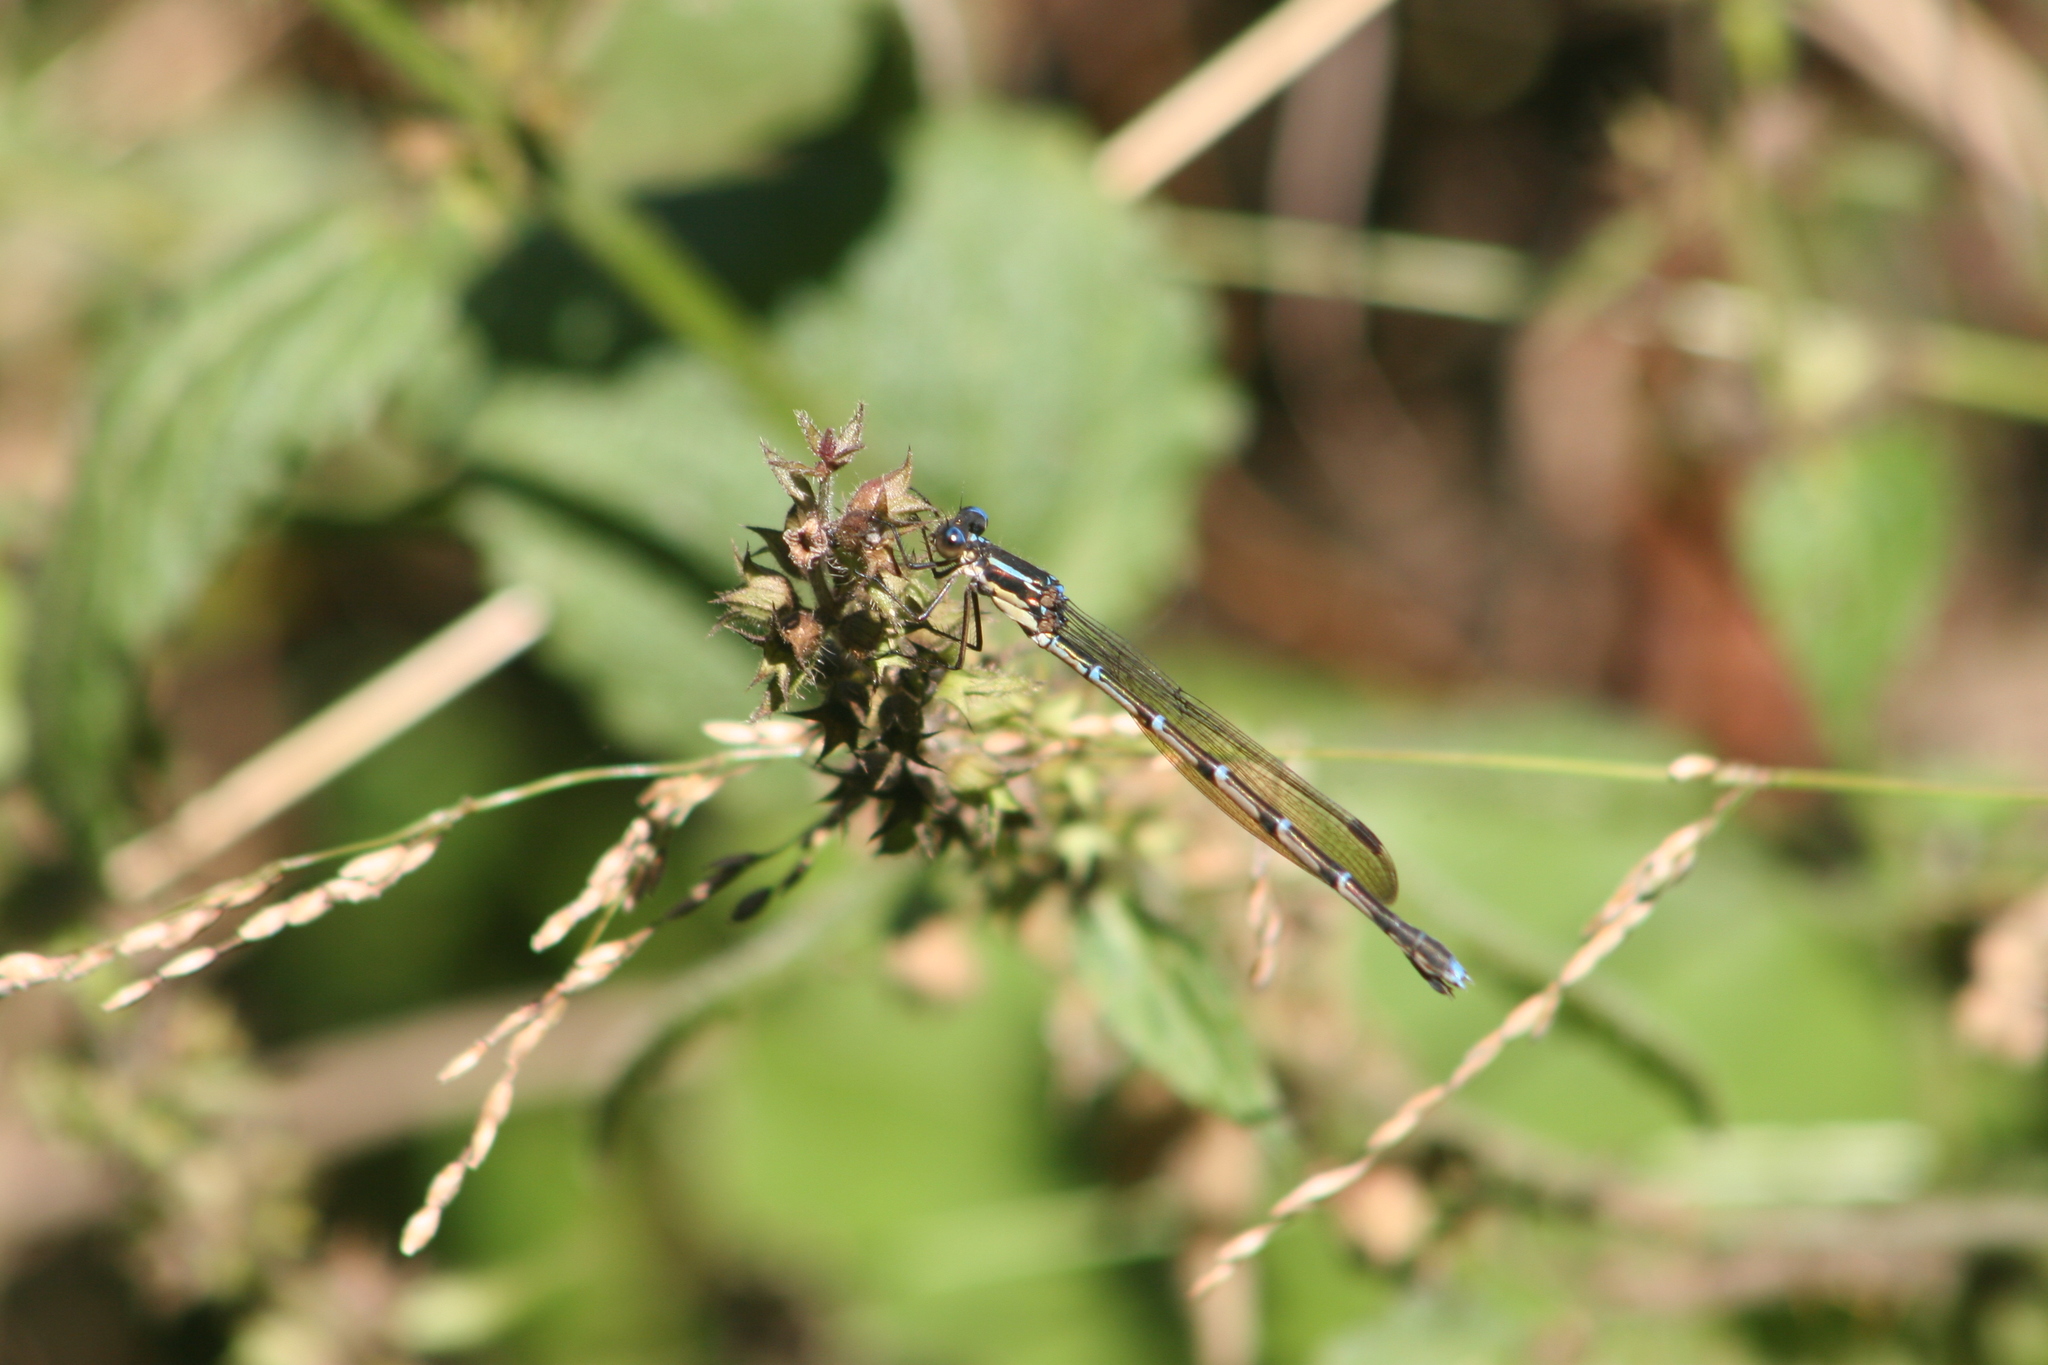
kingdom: Animalia
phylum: Arthropoda
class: Insecta
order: Odonata
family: Lestidae
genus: Austrolestes
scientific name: Austrolestes colensonis
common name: Blue damselfly
